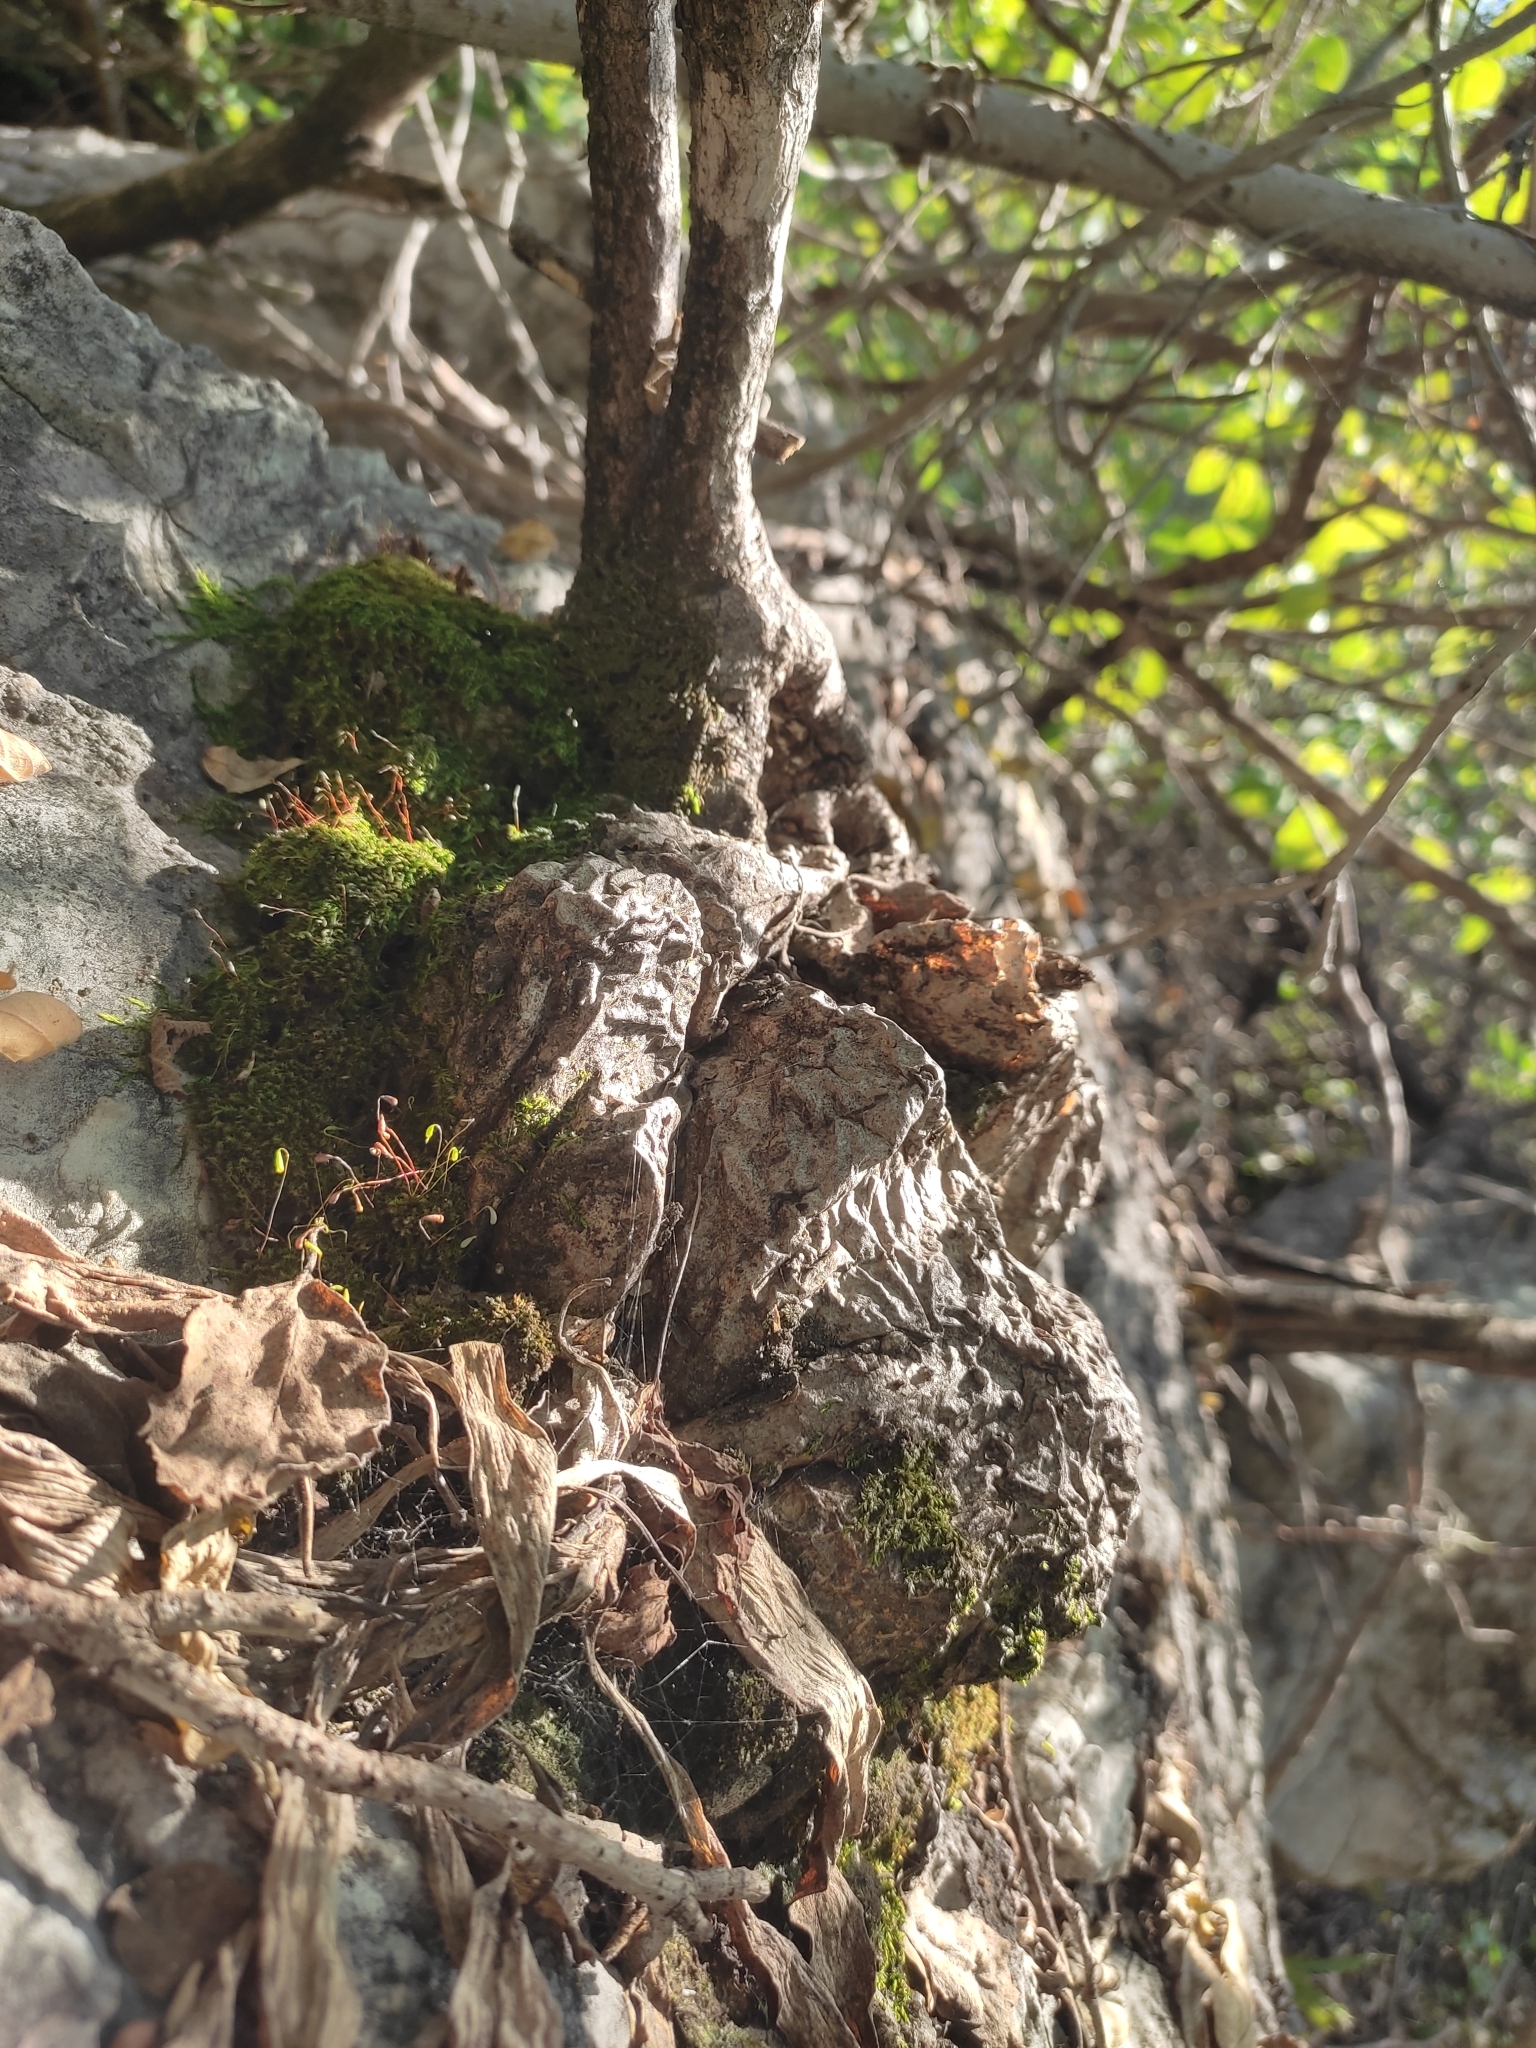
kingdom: Plantae
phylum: Tracheophyta
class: Magnoliopsida
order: Caryophyllales
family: Cactaceae
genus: Peniocereus
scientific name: Peniocereus viperinus
